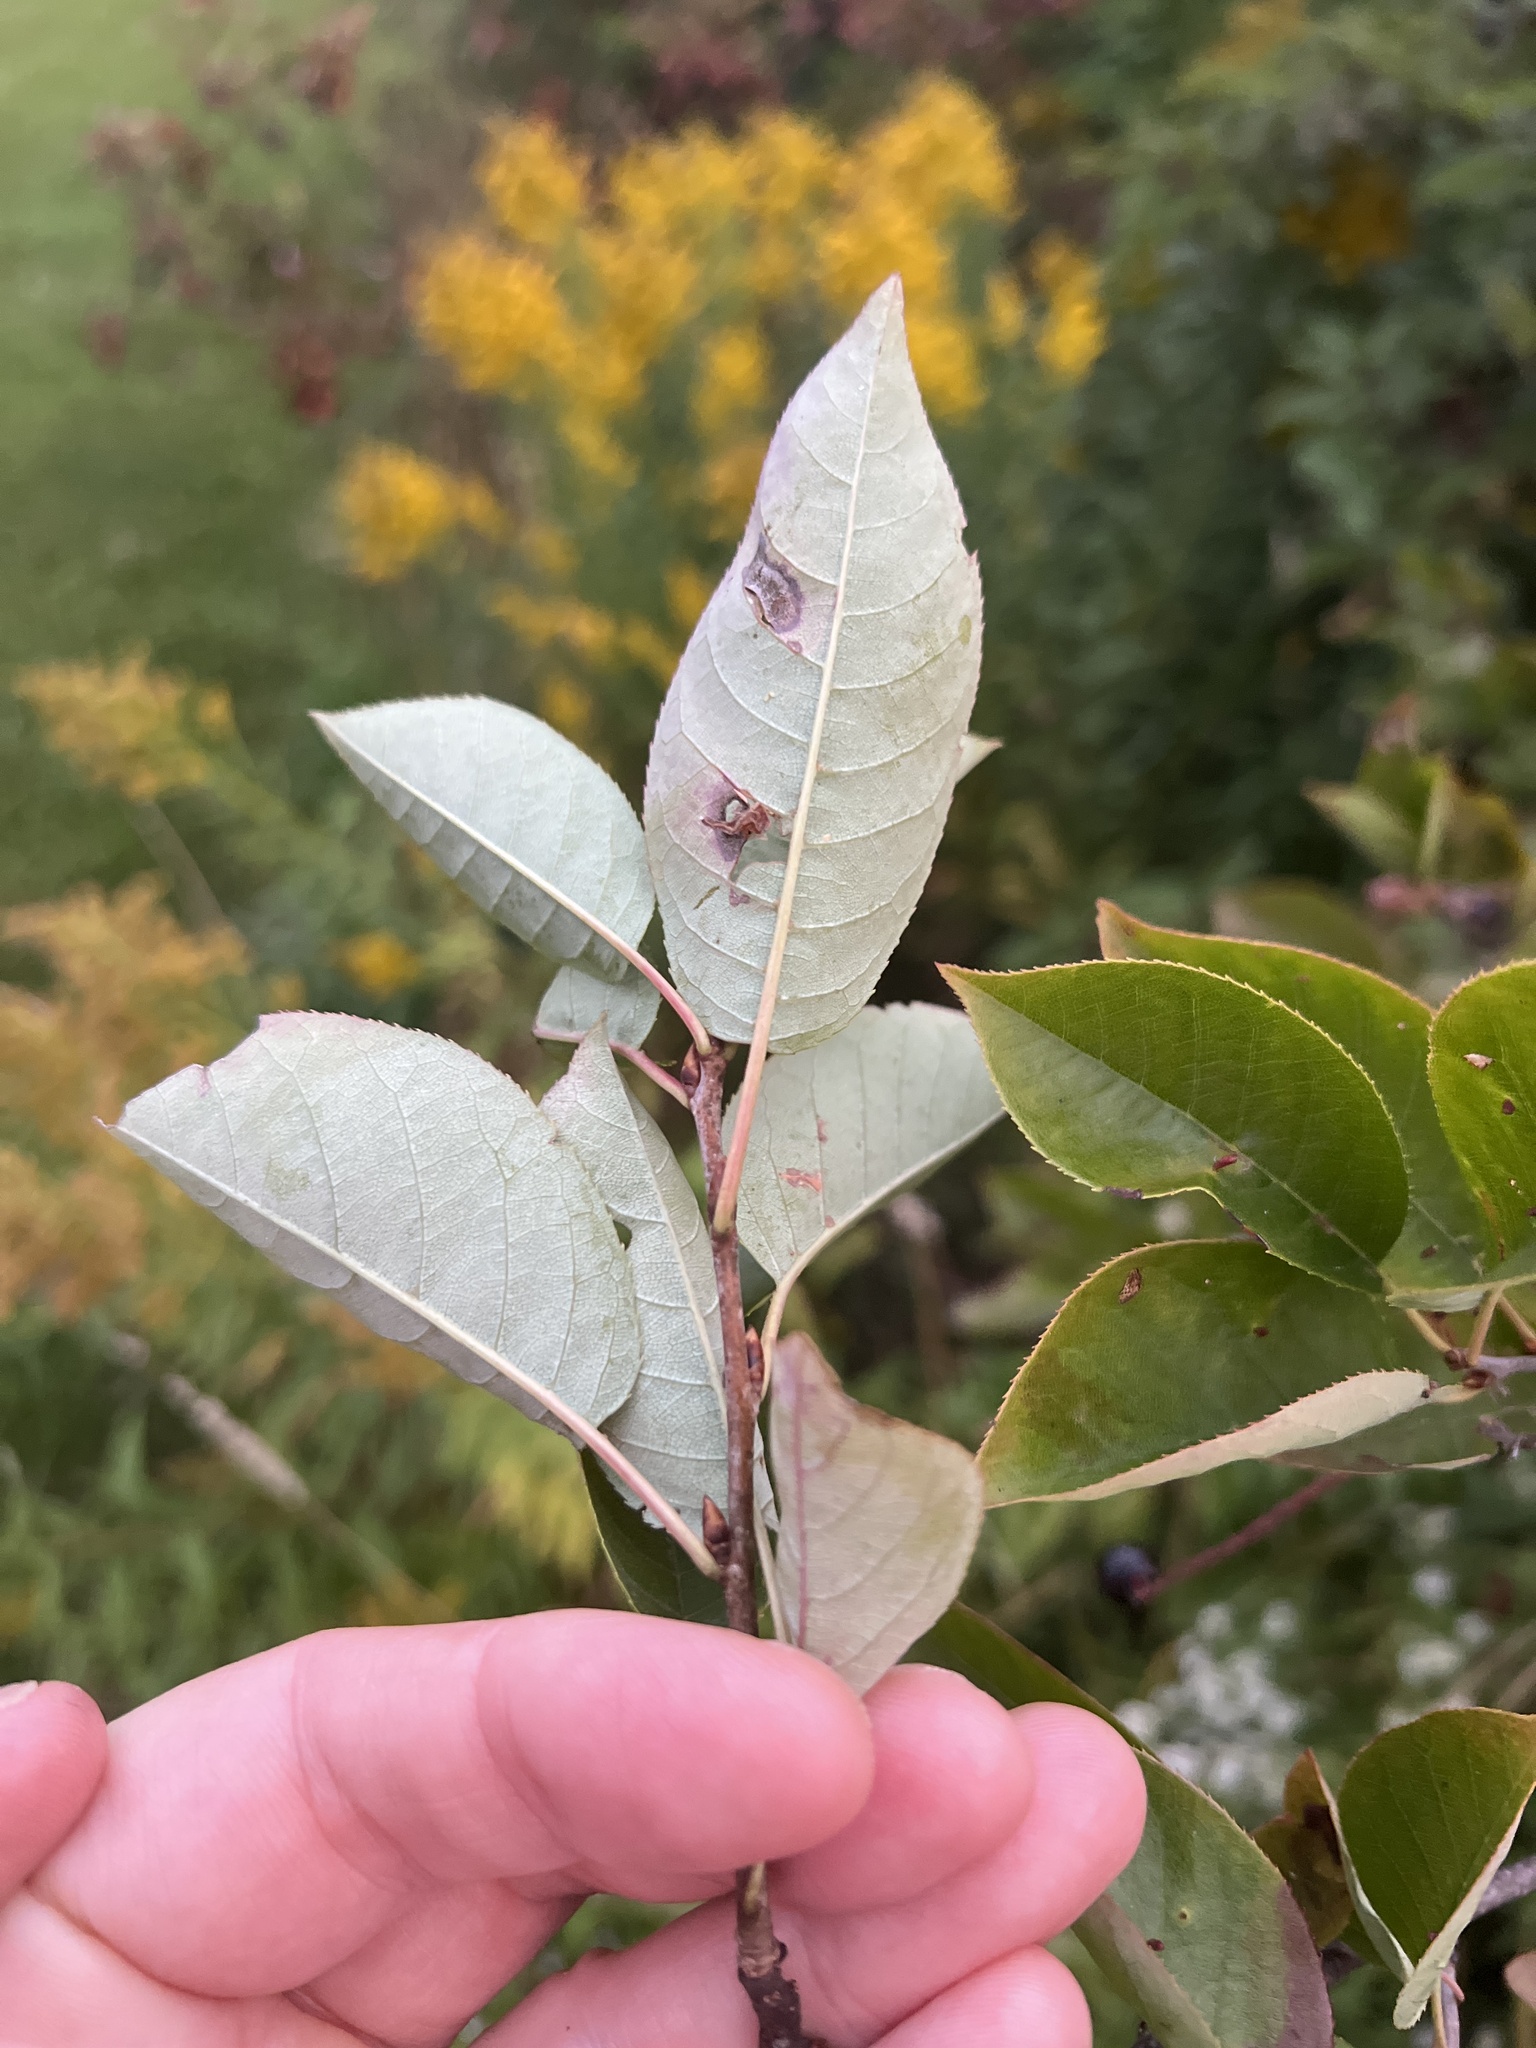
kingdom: Plantae
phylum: Tracheophyta
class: Magnoliopsida
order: Rosales
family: Rosaceae
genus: Prunus
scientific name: Prunus virginiana
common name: Chokecherry
